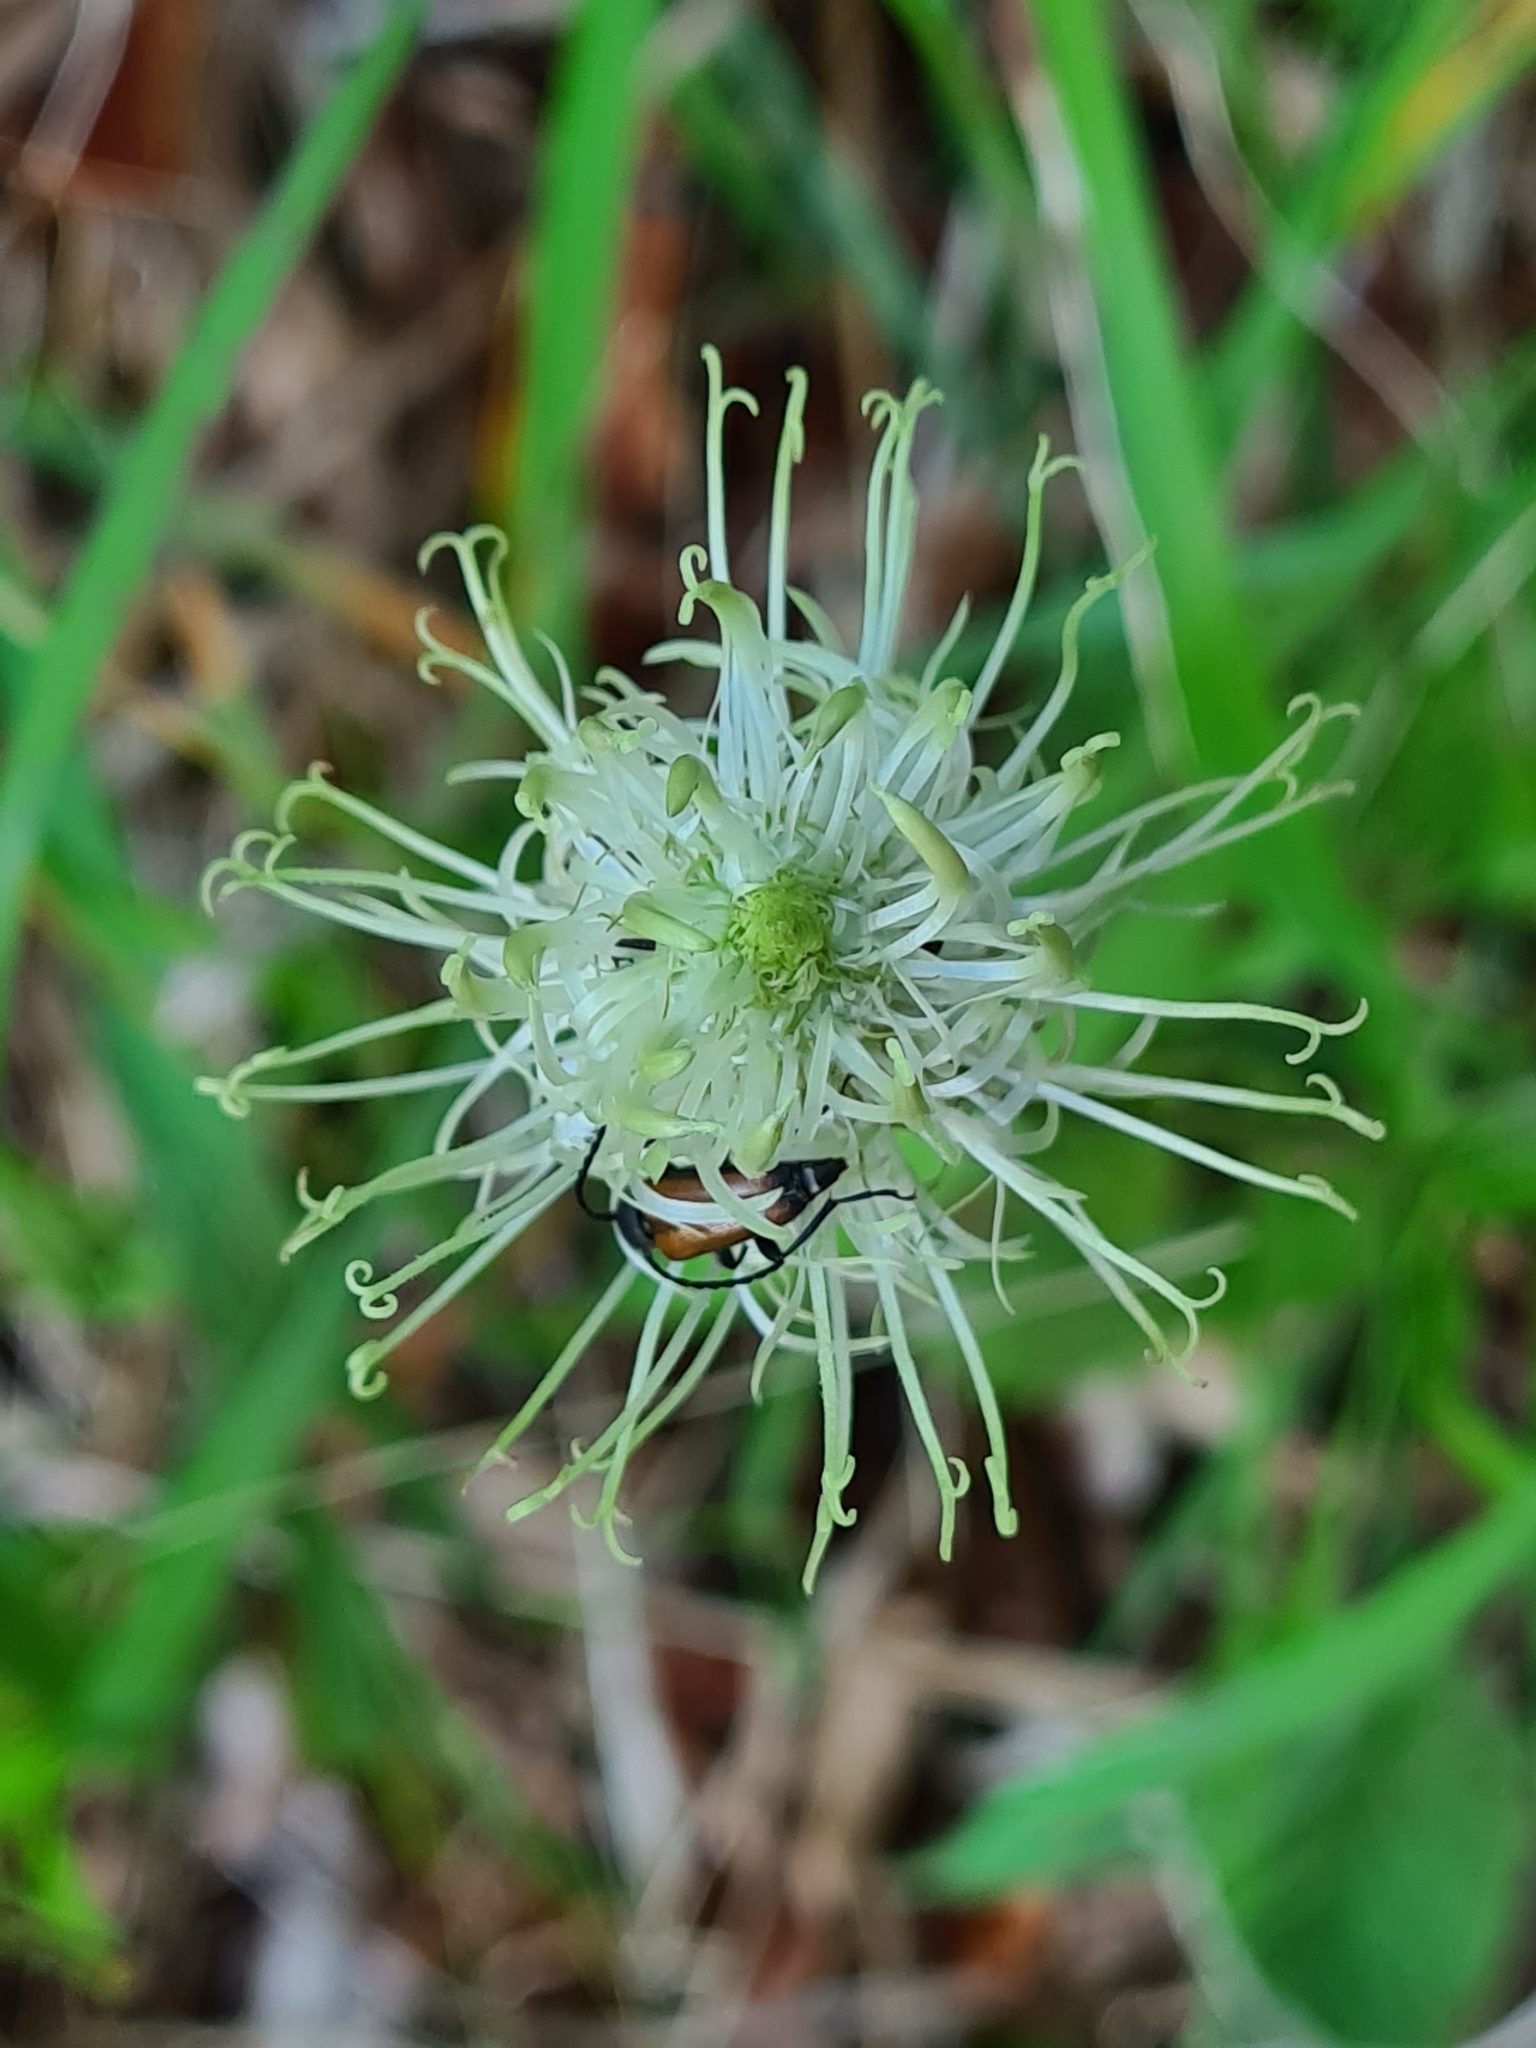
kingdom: Plantae
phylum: Tracheophyta
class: Magnoliopsida
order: Asterales
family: Campanulaceae
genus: Phyteuma
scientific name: Phyteuma spicatum
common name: Spiked rampion
